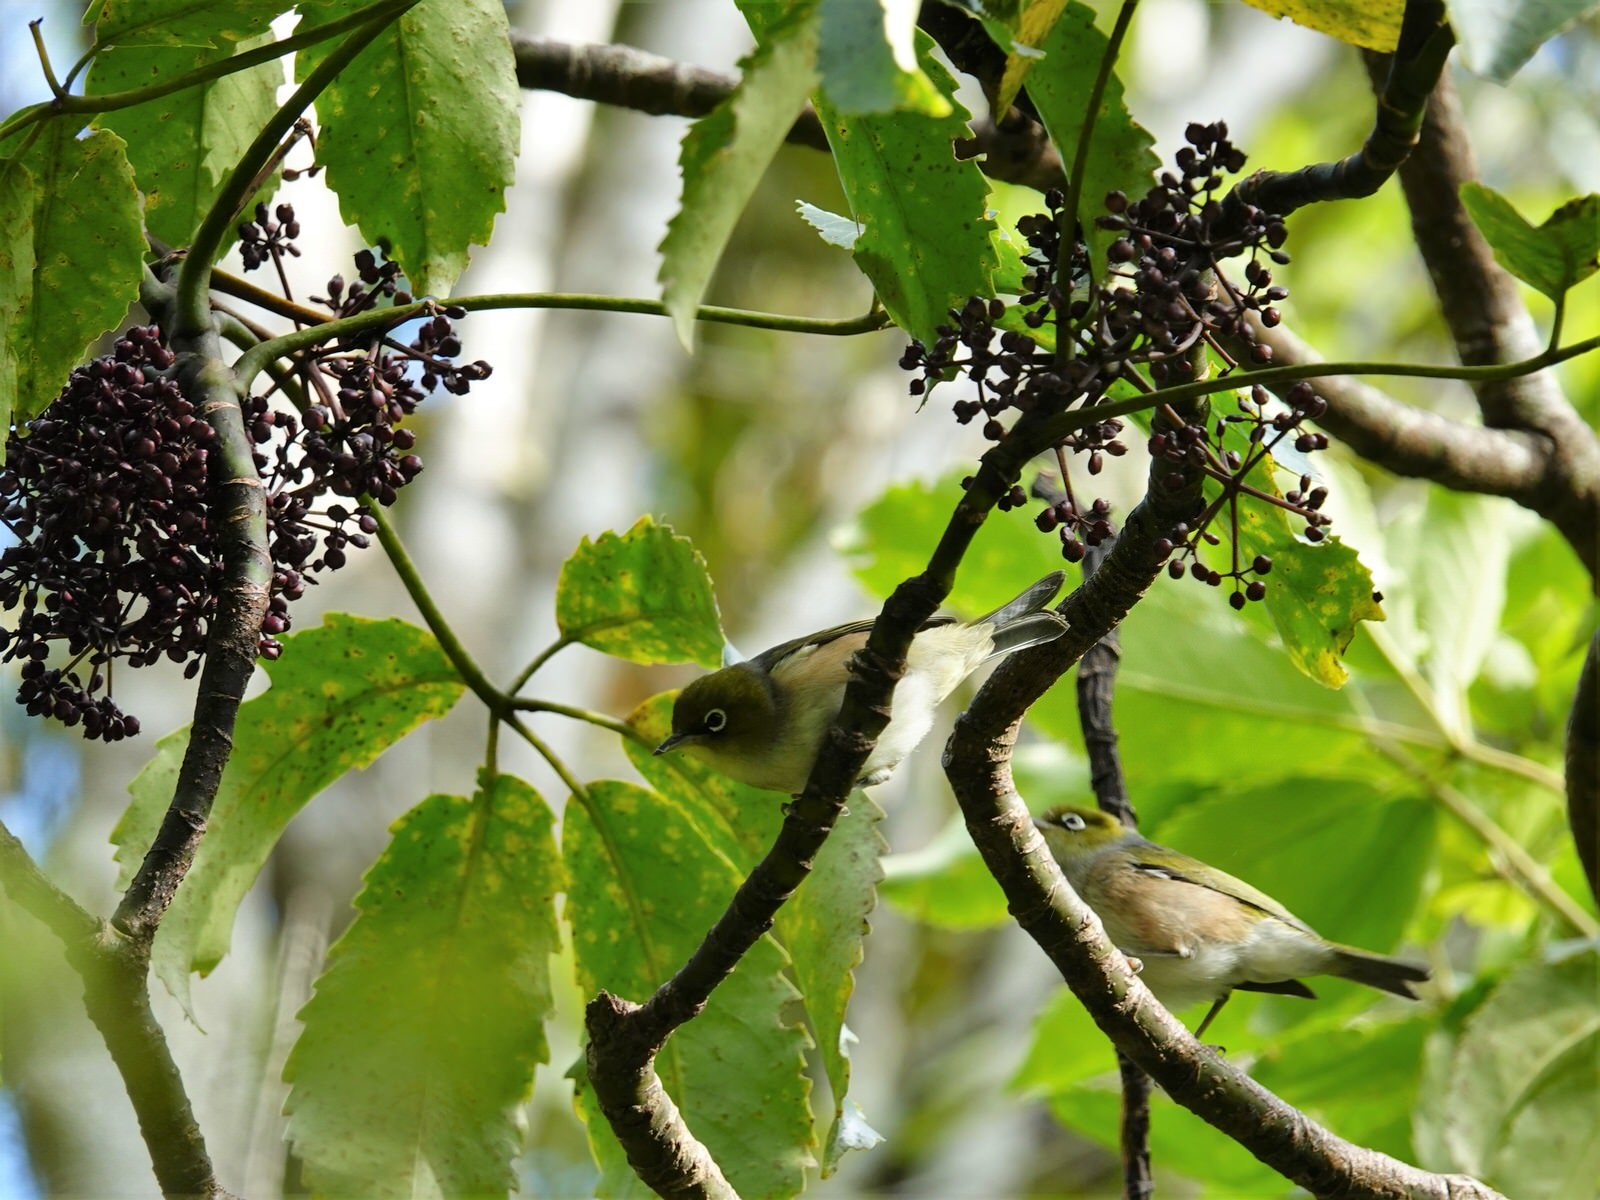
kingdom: Animalia
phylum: Chordata
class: Aves
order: Passeriformes
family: Zosteropidae
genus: Zosterops
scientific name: Zosterops lateralis
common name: Silvereye
